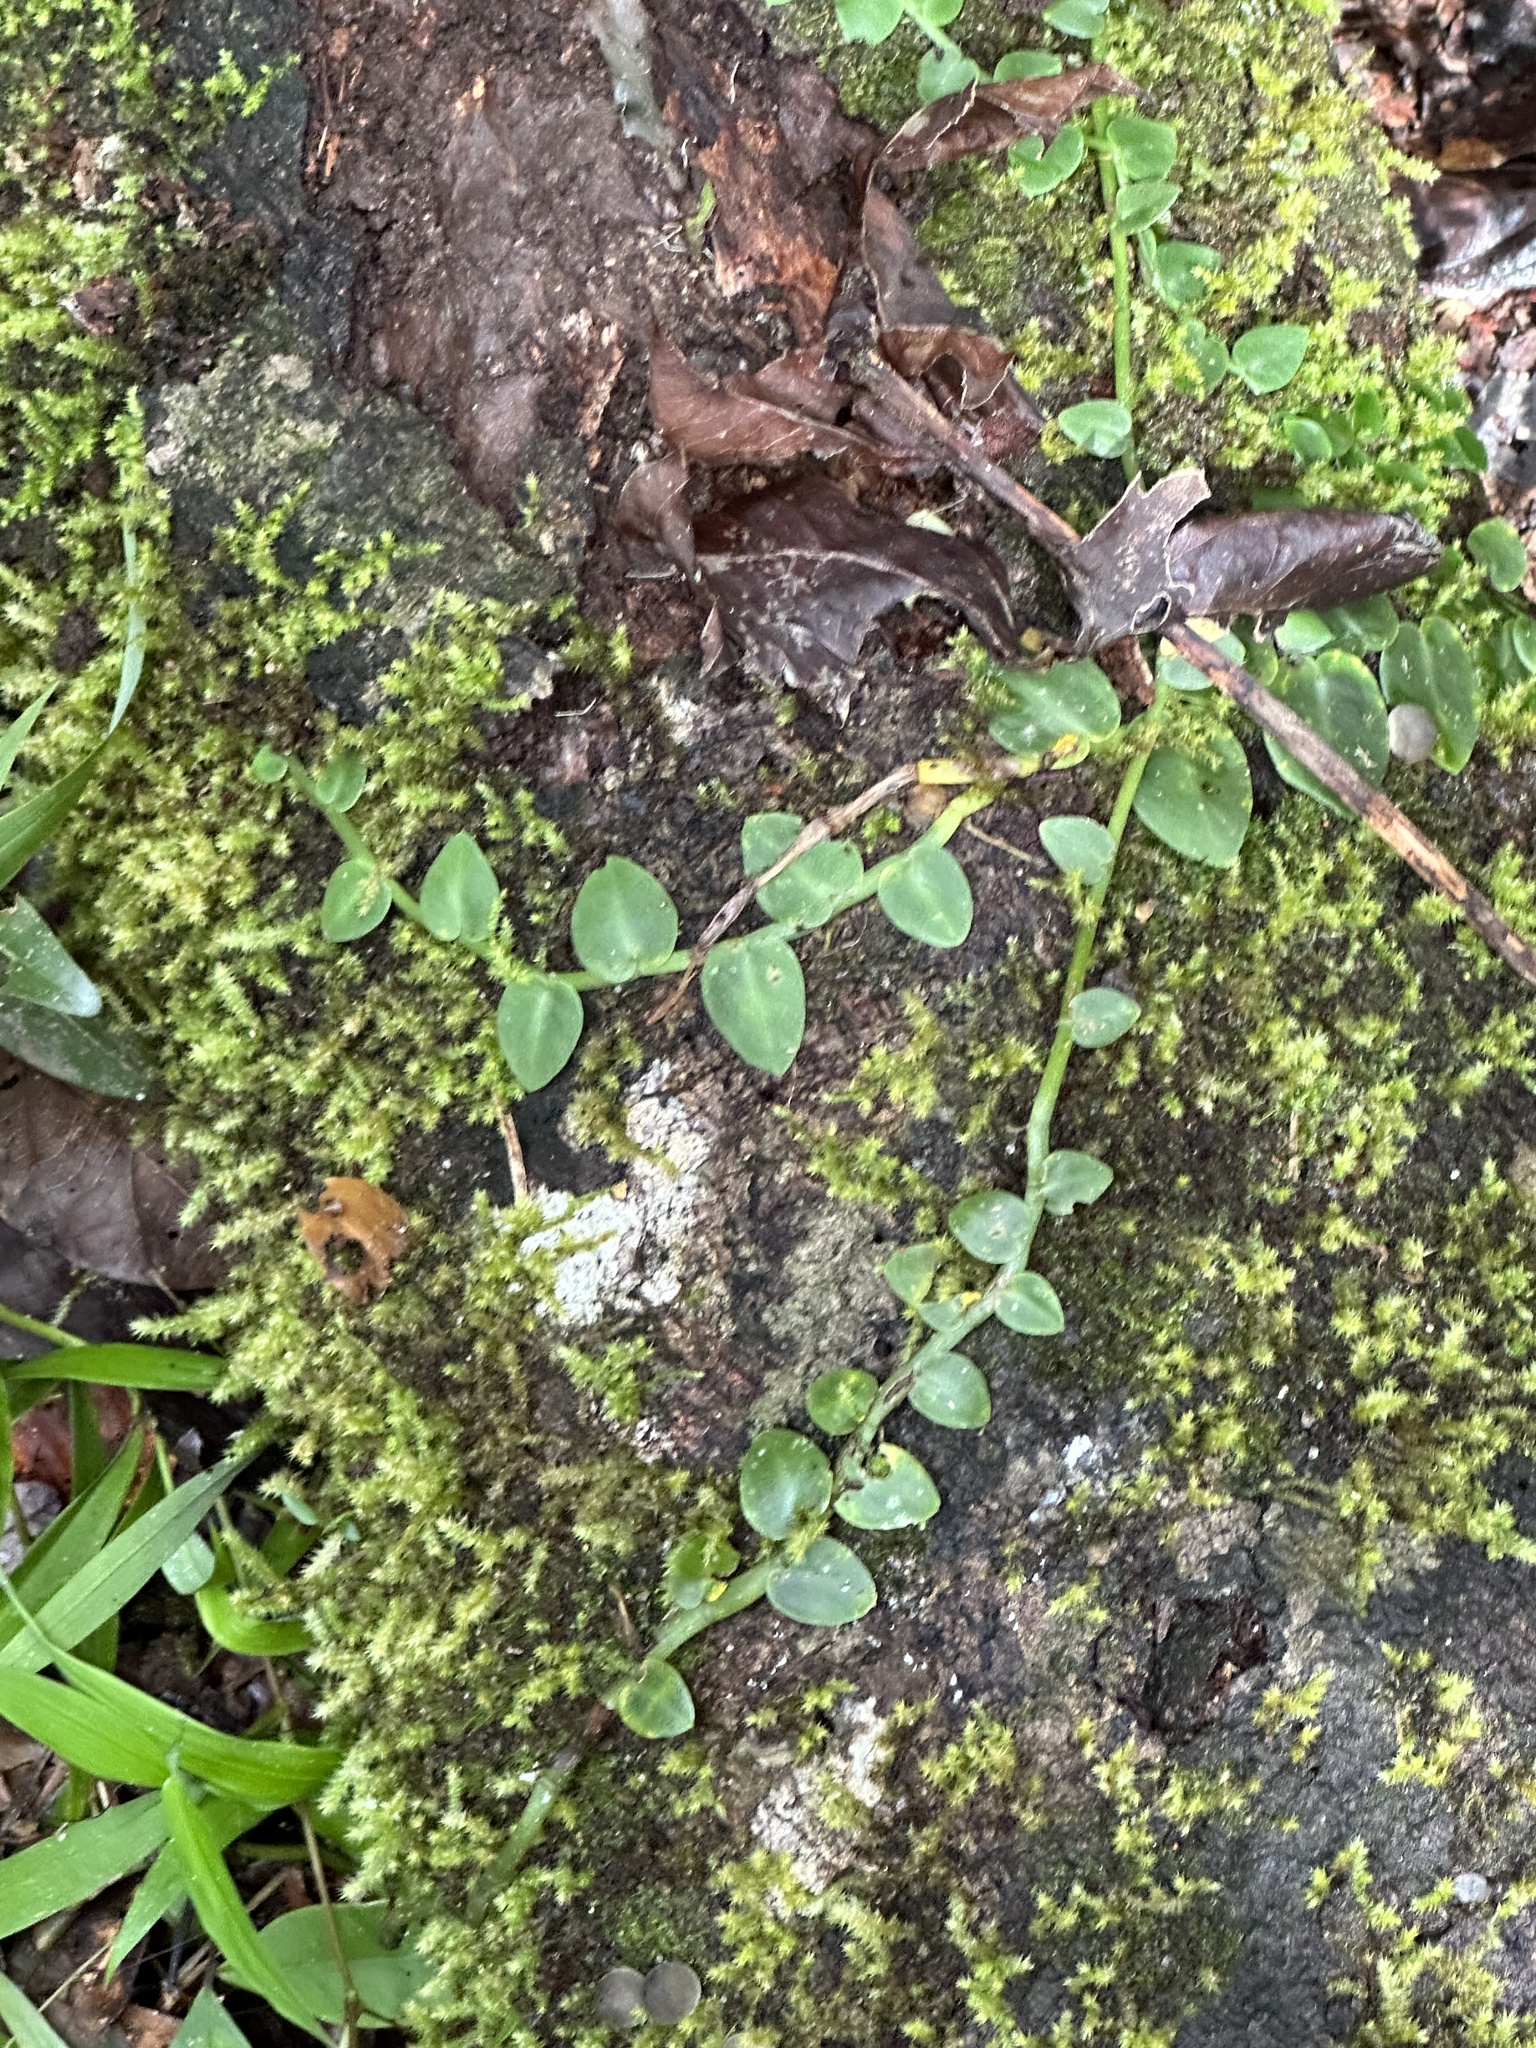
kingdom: Plantae
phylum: Tracheophyta
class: Liliopsida
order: Alismatales
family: Araceae
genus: Rhaphidophora
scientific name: Rhaphidophora hayi
